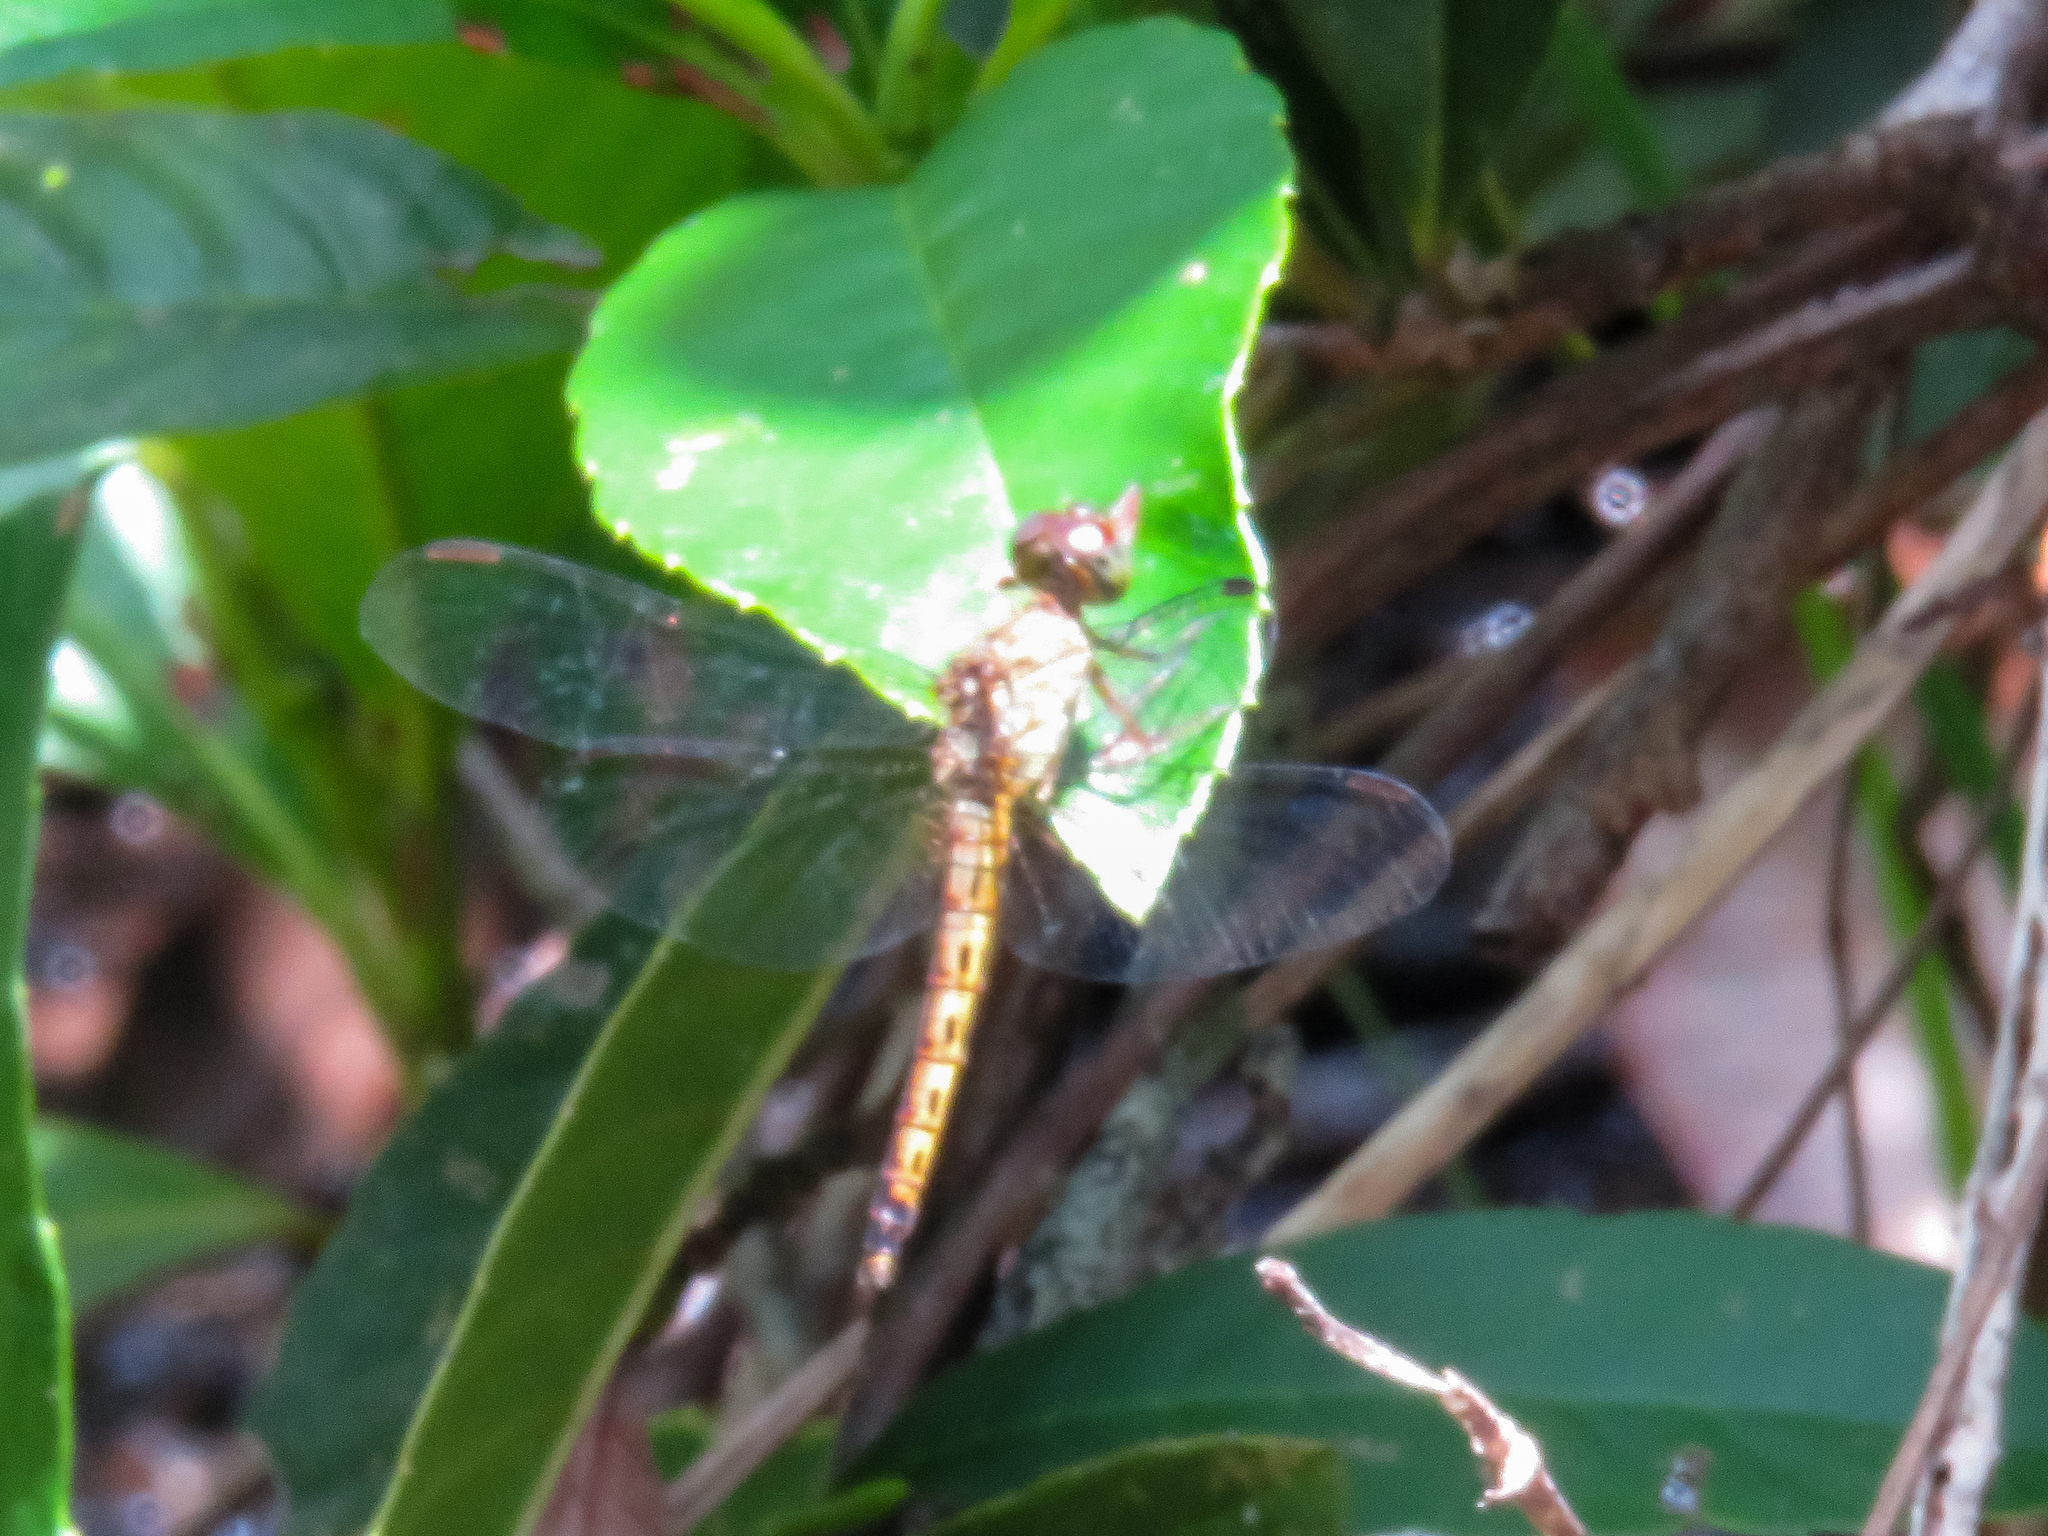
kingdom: Animalia
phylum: Arthropoda
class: Insecta
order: Odonata
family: Libellulidae
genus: Neurothemis
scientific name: Neurothemis fluctuans
